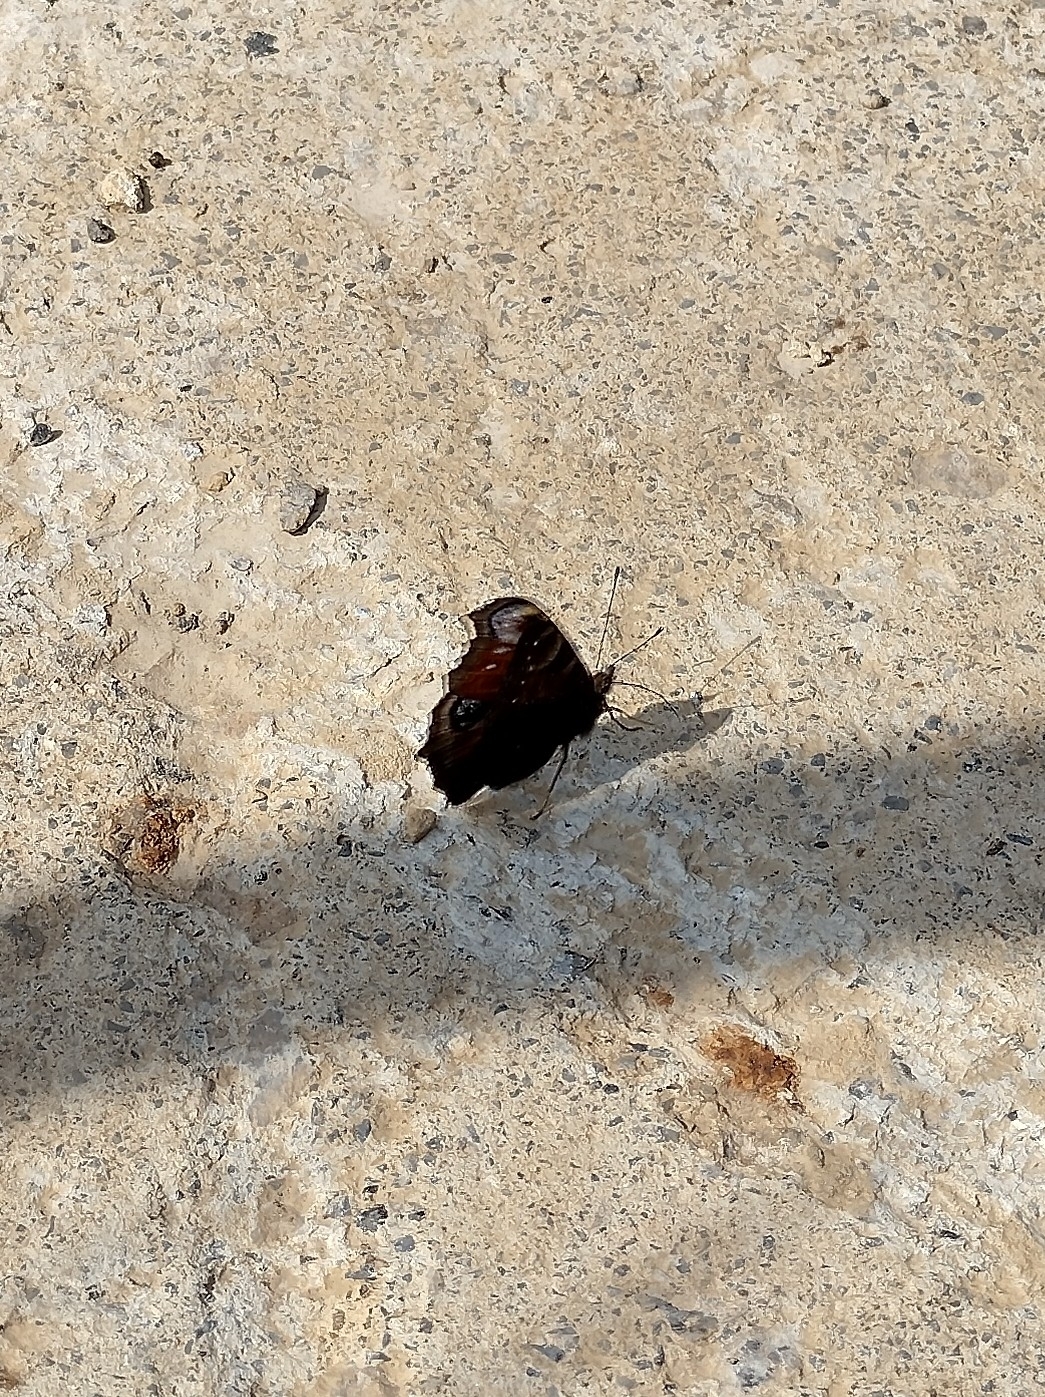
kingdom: Animalia
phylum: Arthropoda
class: Insecta
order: Lepidoptera
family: Nymphalidae
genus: Aglais
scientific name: Aglais io
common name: Peacock
